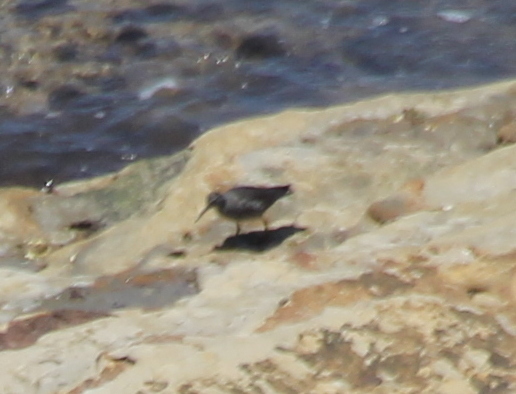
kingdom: Animalia
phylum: Chordata
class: Aves
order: Charadriiformes
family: Scolopacidae
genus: Tringa
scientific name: Tringa incana
